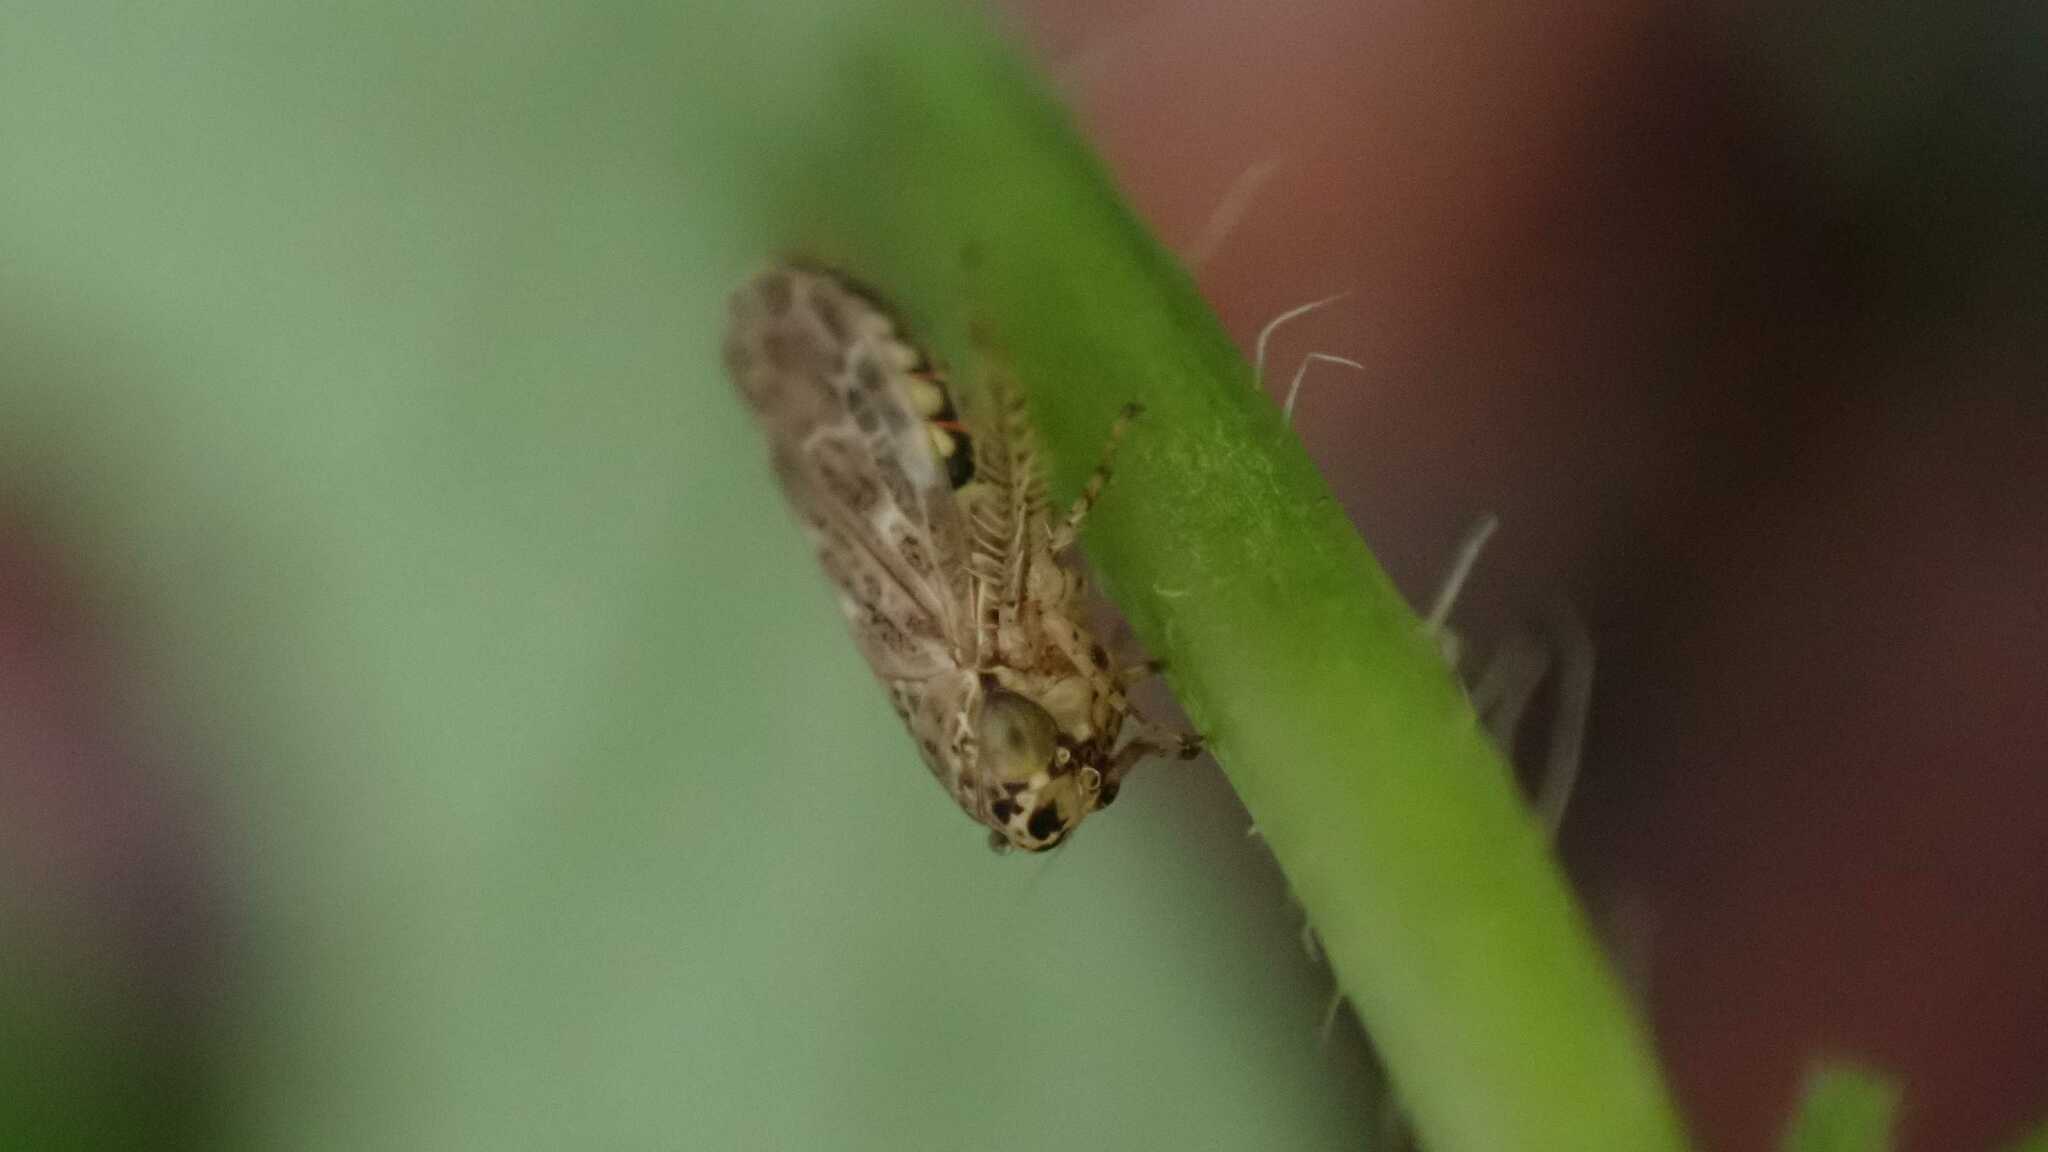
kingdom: Animalia
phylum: Arthropoda
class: Insecta
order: Hemiptera
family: Cicadellidae
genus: Euscelidius
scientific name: Euscelidius variegatus
